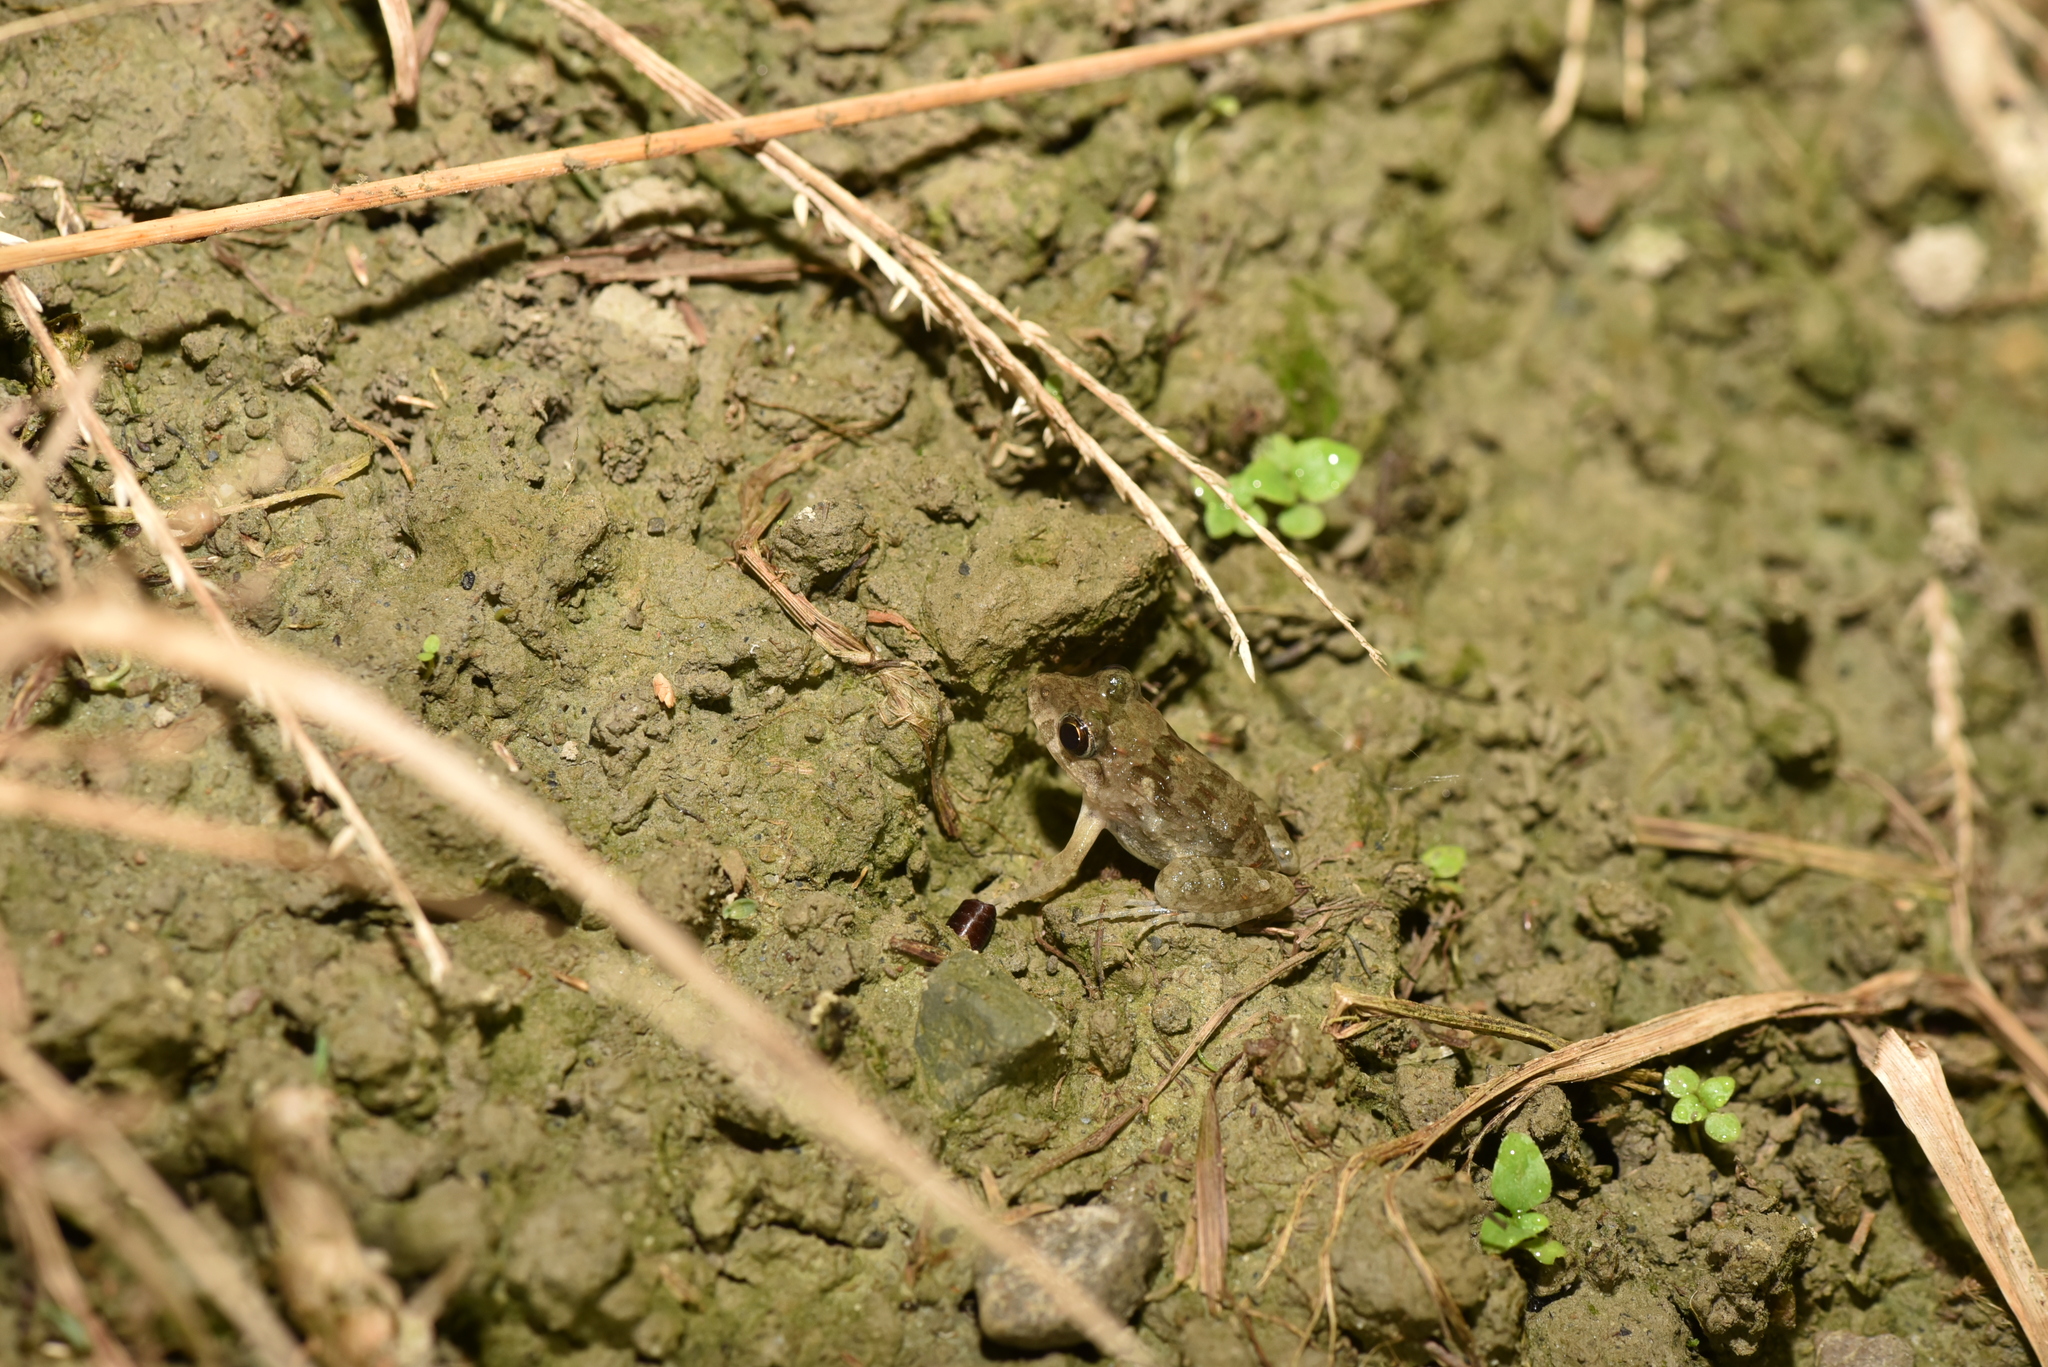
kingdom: Animalia
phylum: Chordata
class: Amphibia
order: Anura
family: Dicroglossidae
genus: Fejervarya
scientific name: Fejervarya limnocharis
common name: Asian grass frog/common pond frog/field frog/grass frog/indian rice frog
